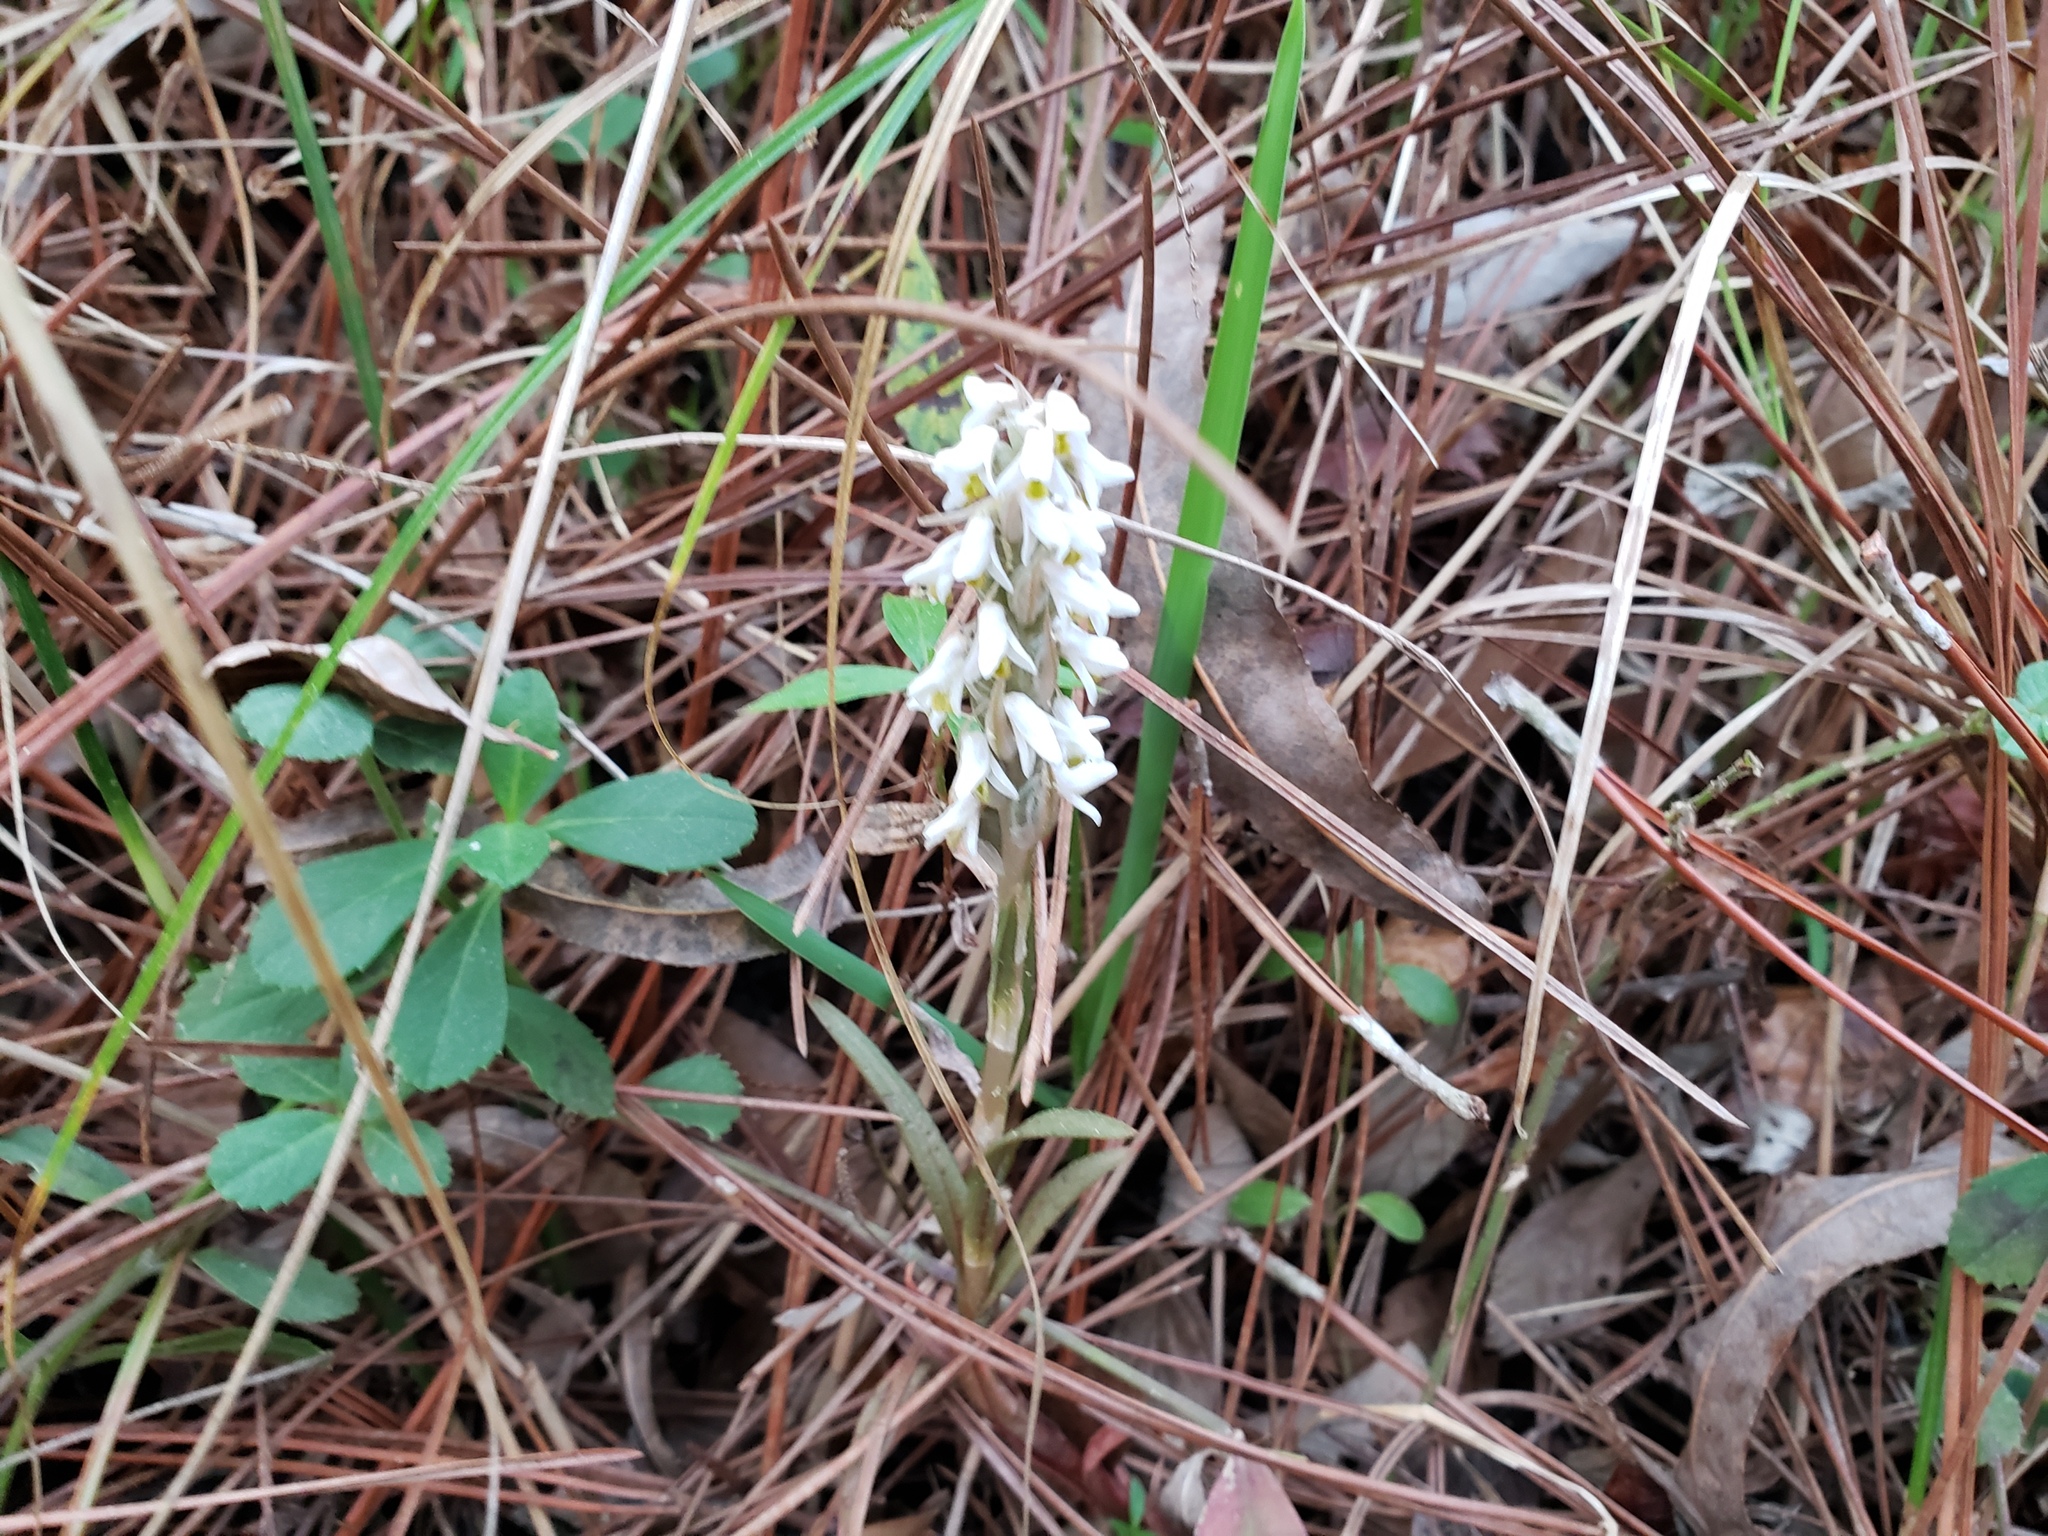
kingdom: Plantae
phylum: Tracheophyta
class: Liliopsida
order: Asparagales
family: Orchidaceae
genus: Zeuxine
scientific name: Zeuxine strateumatica
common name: Soldier's orchid
